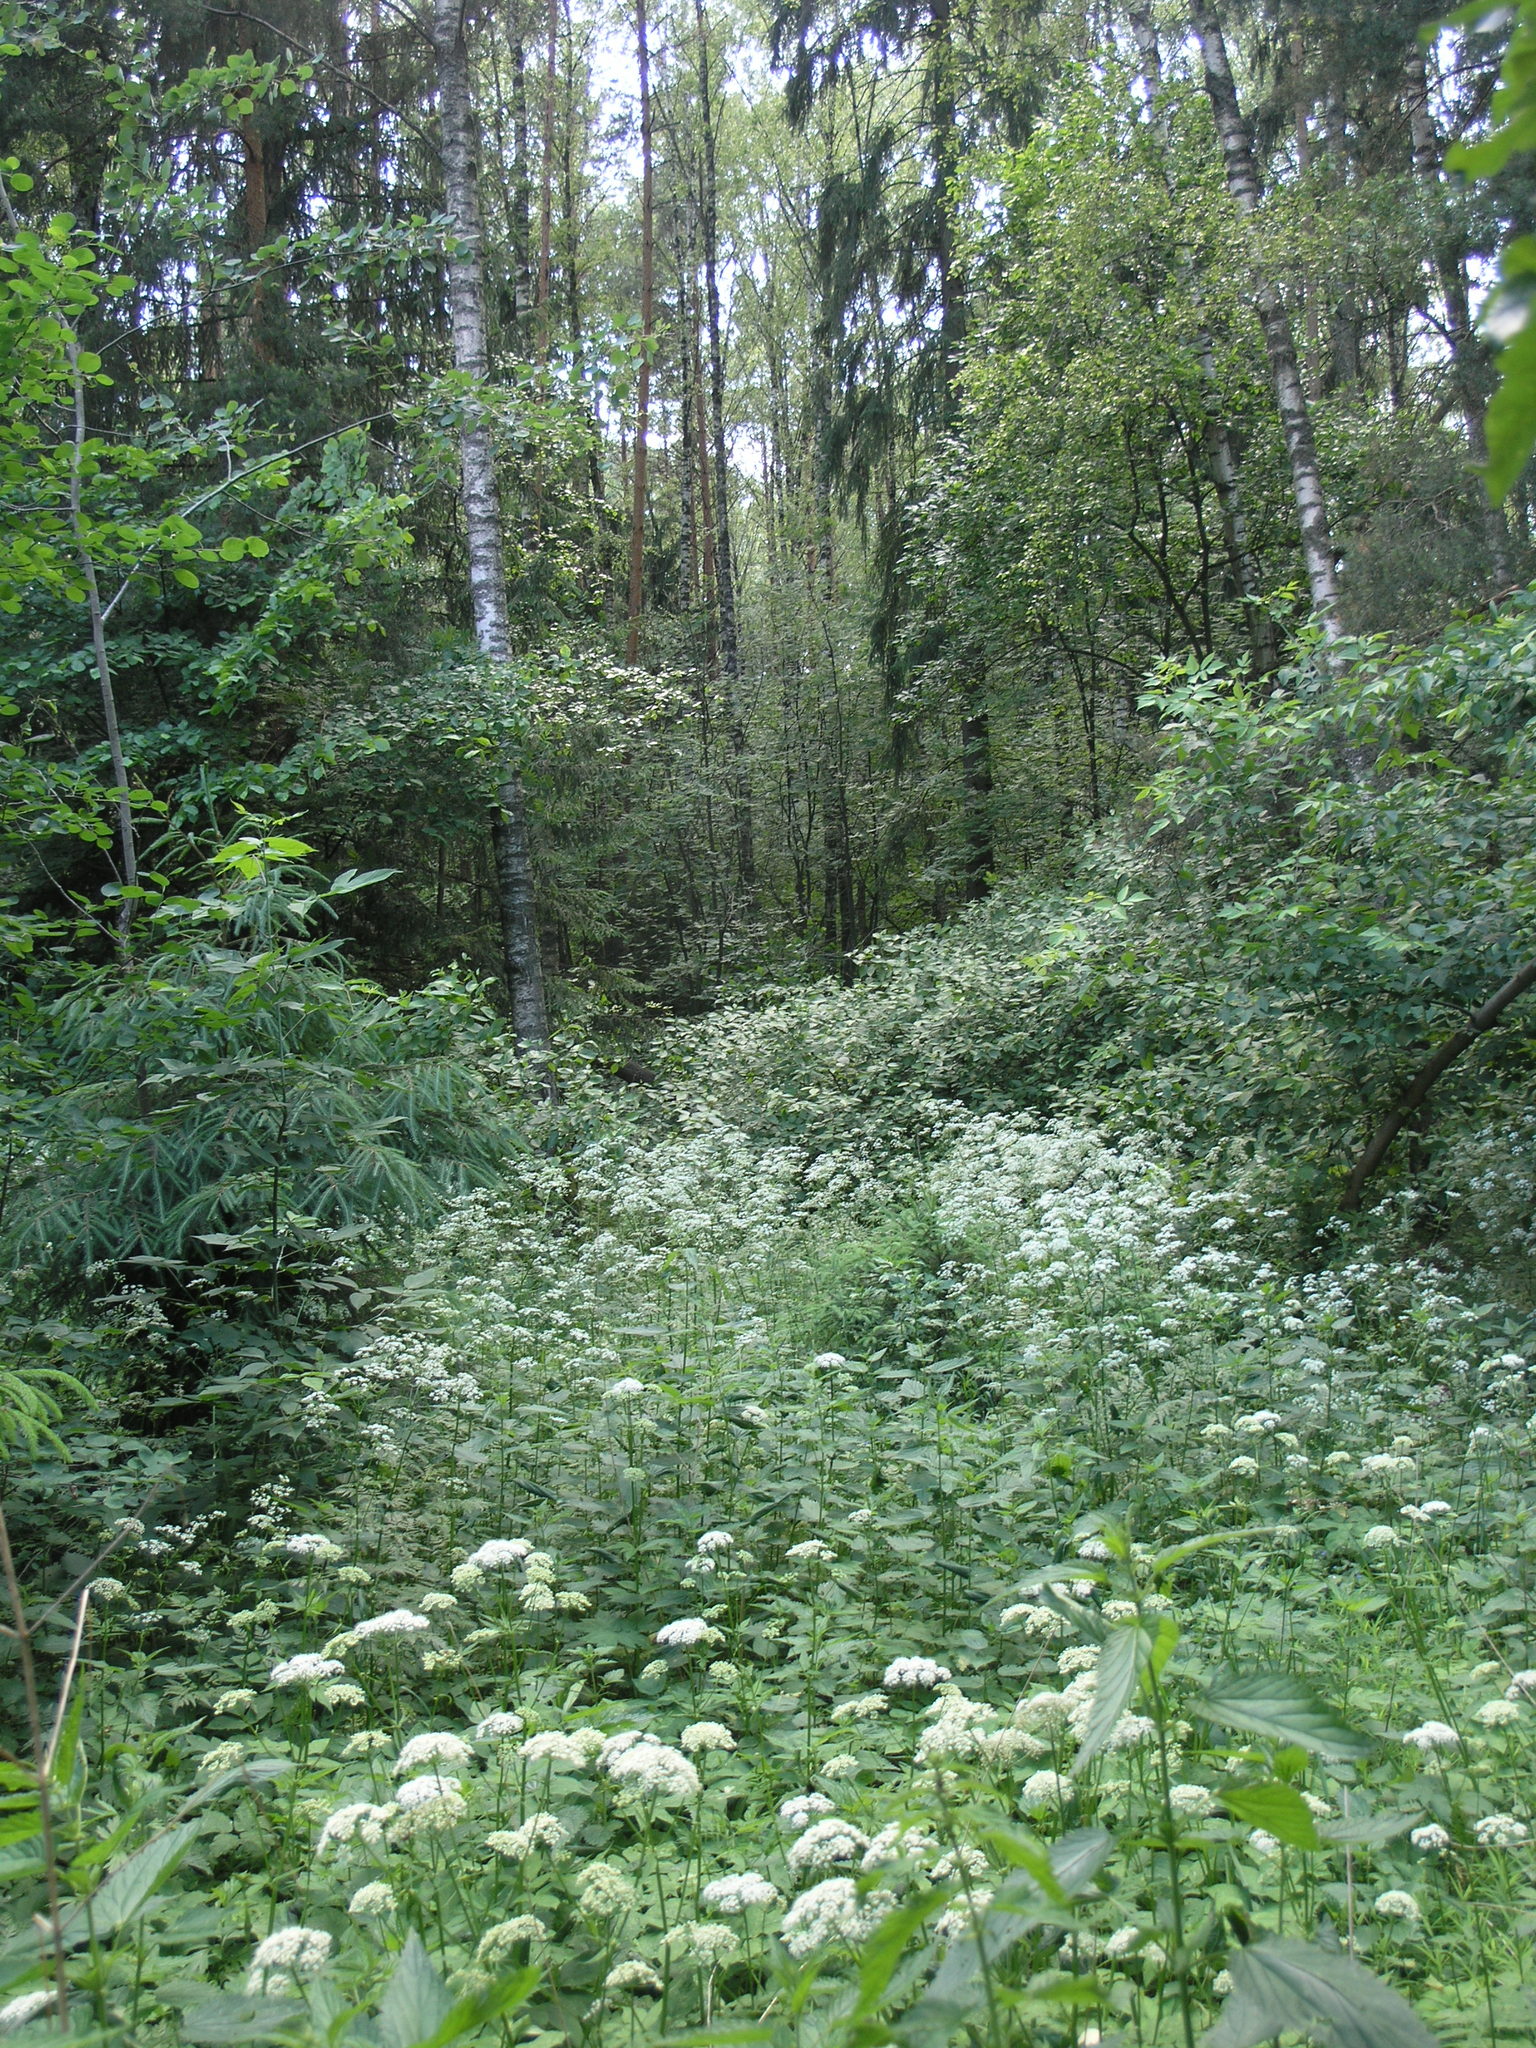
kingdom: Plantae
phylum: Tracheophyta
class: Magnoliopsida
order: Apiales
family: Apiaceae
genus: Aegopodium
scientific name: Aegopodium podagraria
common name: Ground-elder
